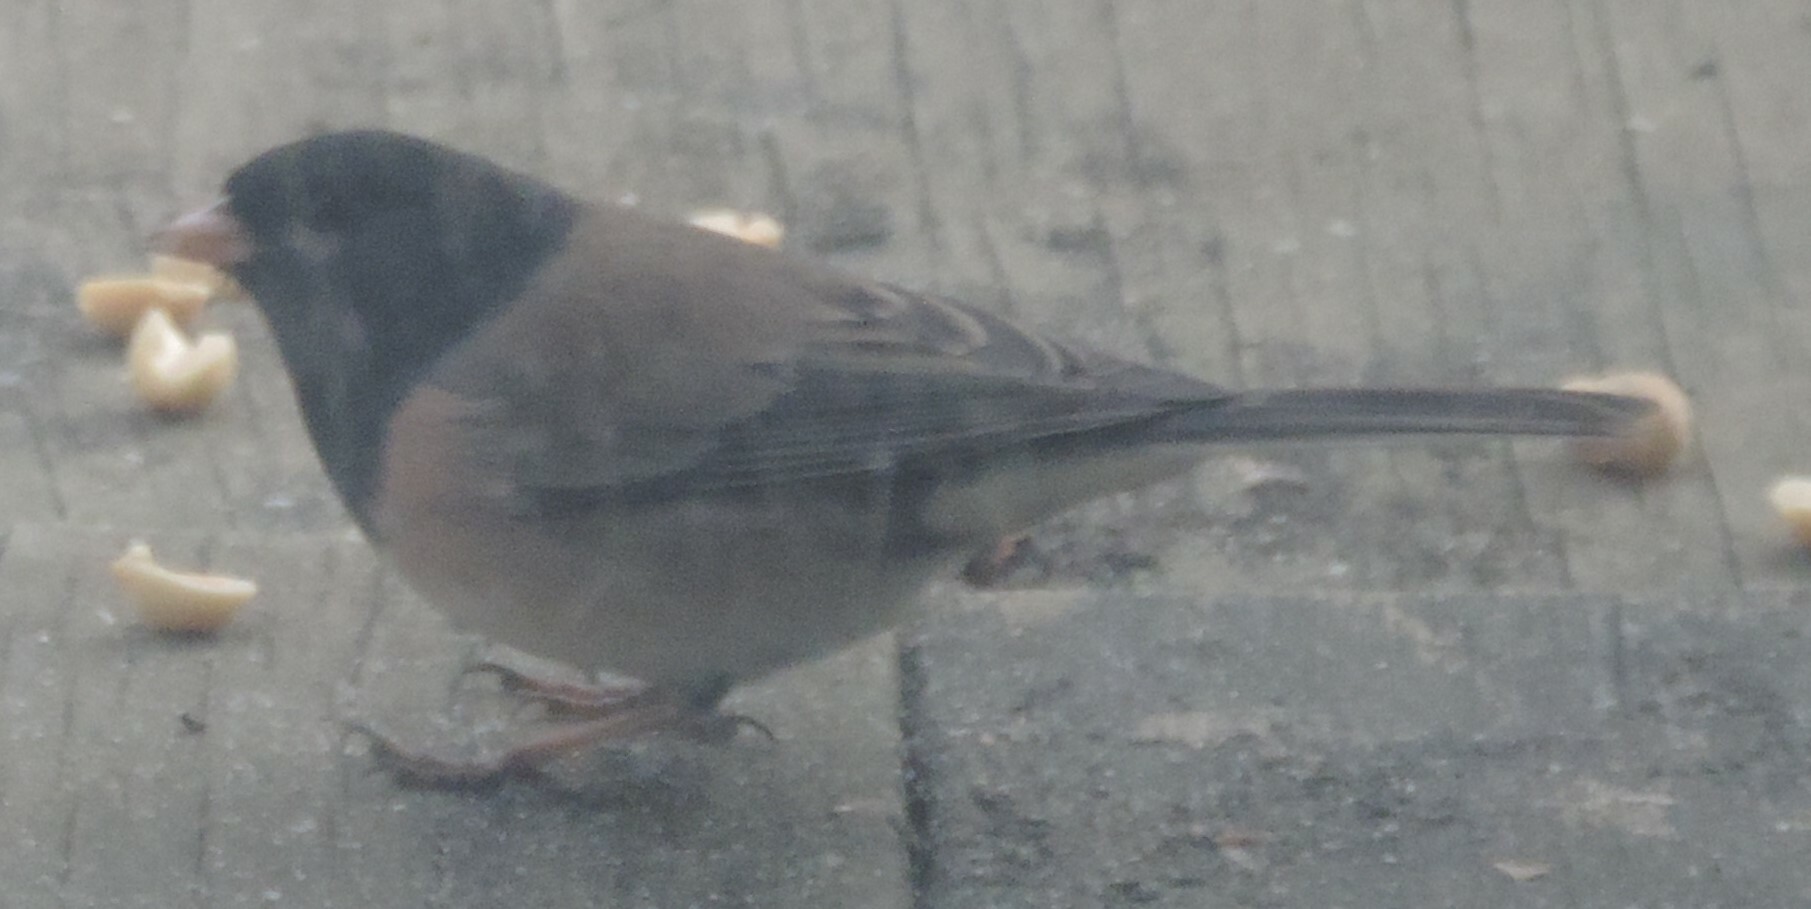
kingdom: Animalia
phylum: Chordata
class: Aves
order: Passeriformes
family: Passerellidae
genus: Junco
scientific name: Junco hyemalis
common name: Dark-eyed junco
